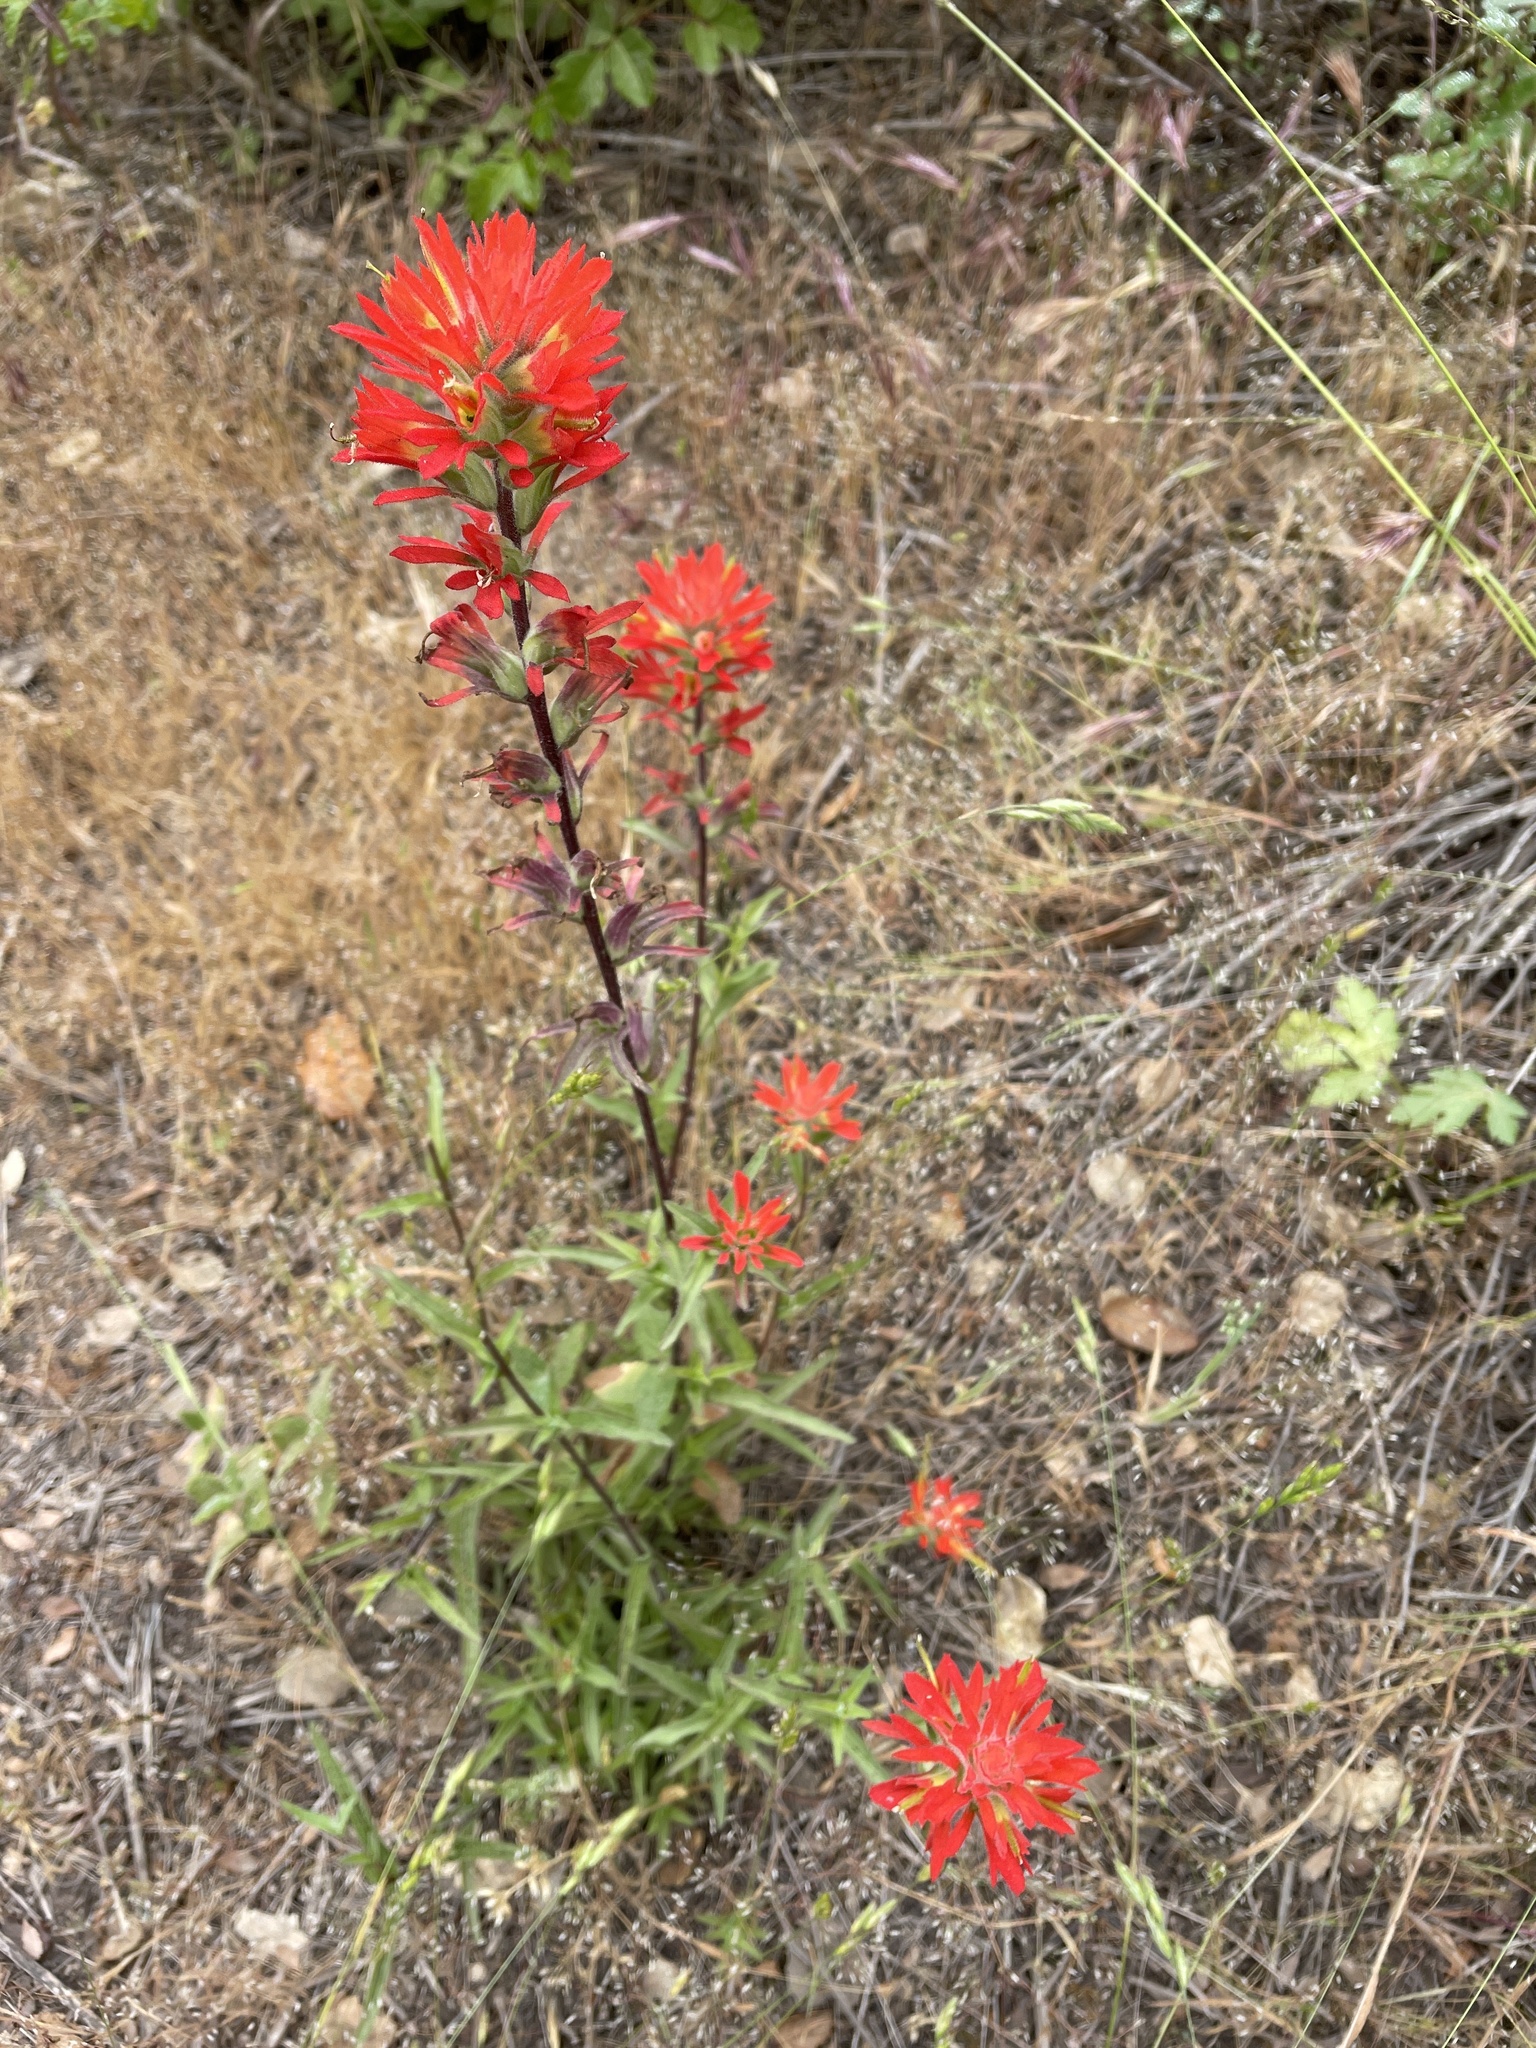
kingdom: Plantae
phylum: Tracheophyta
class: Magnoliopsida
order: Lamiales
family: Orobanchaceae
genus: Castilleja
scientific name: Castilleja affinis
